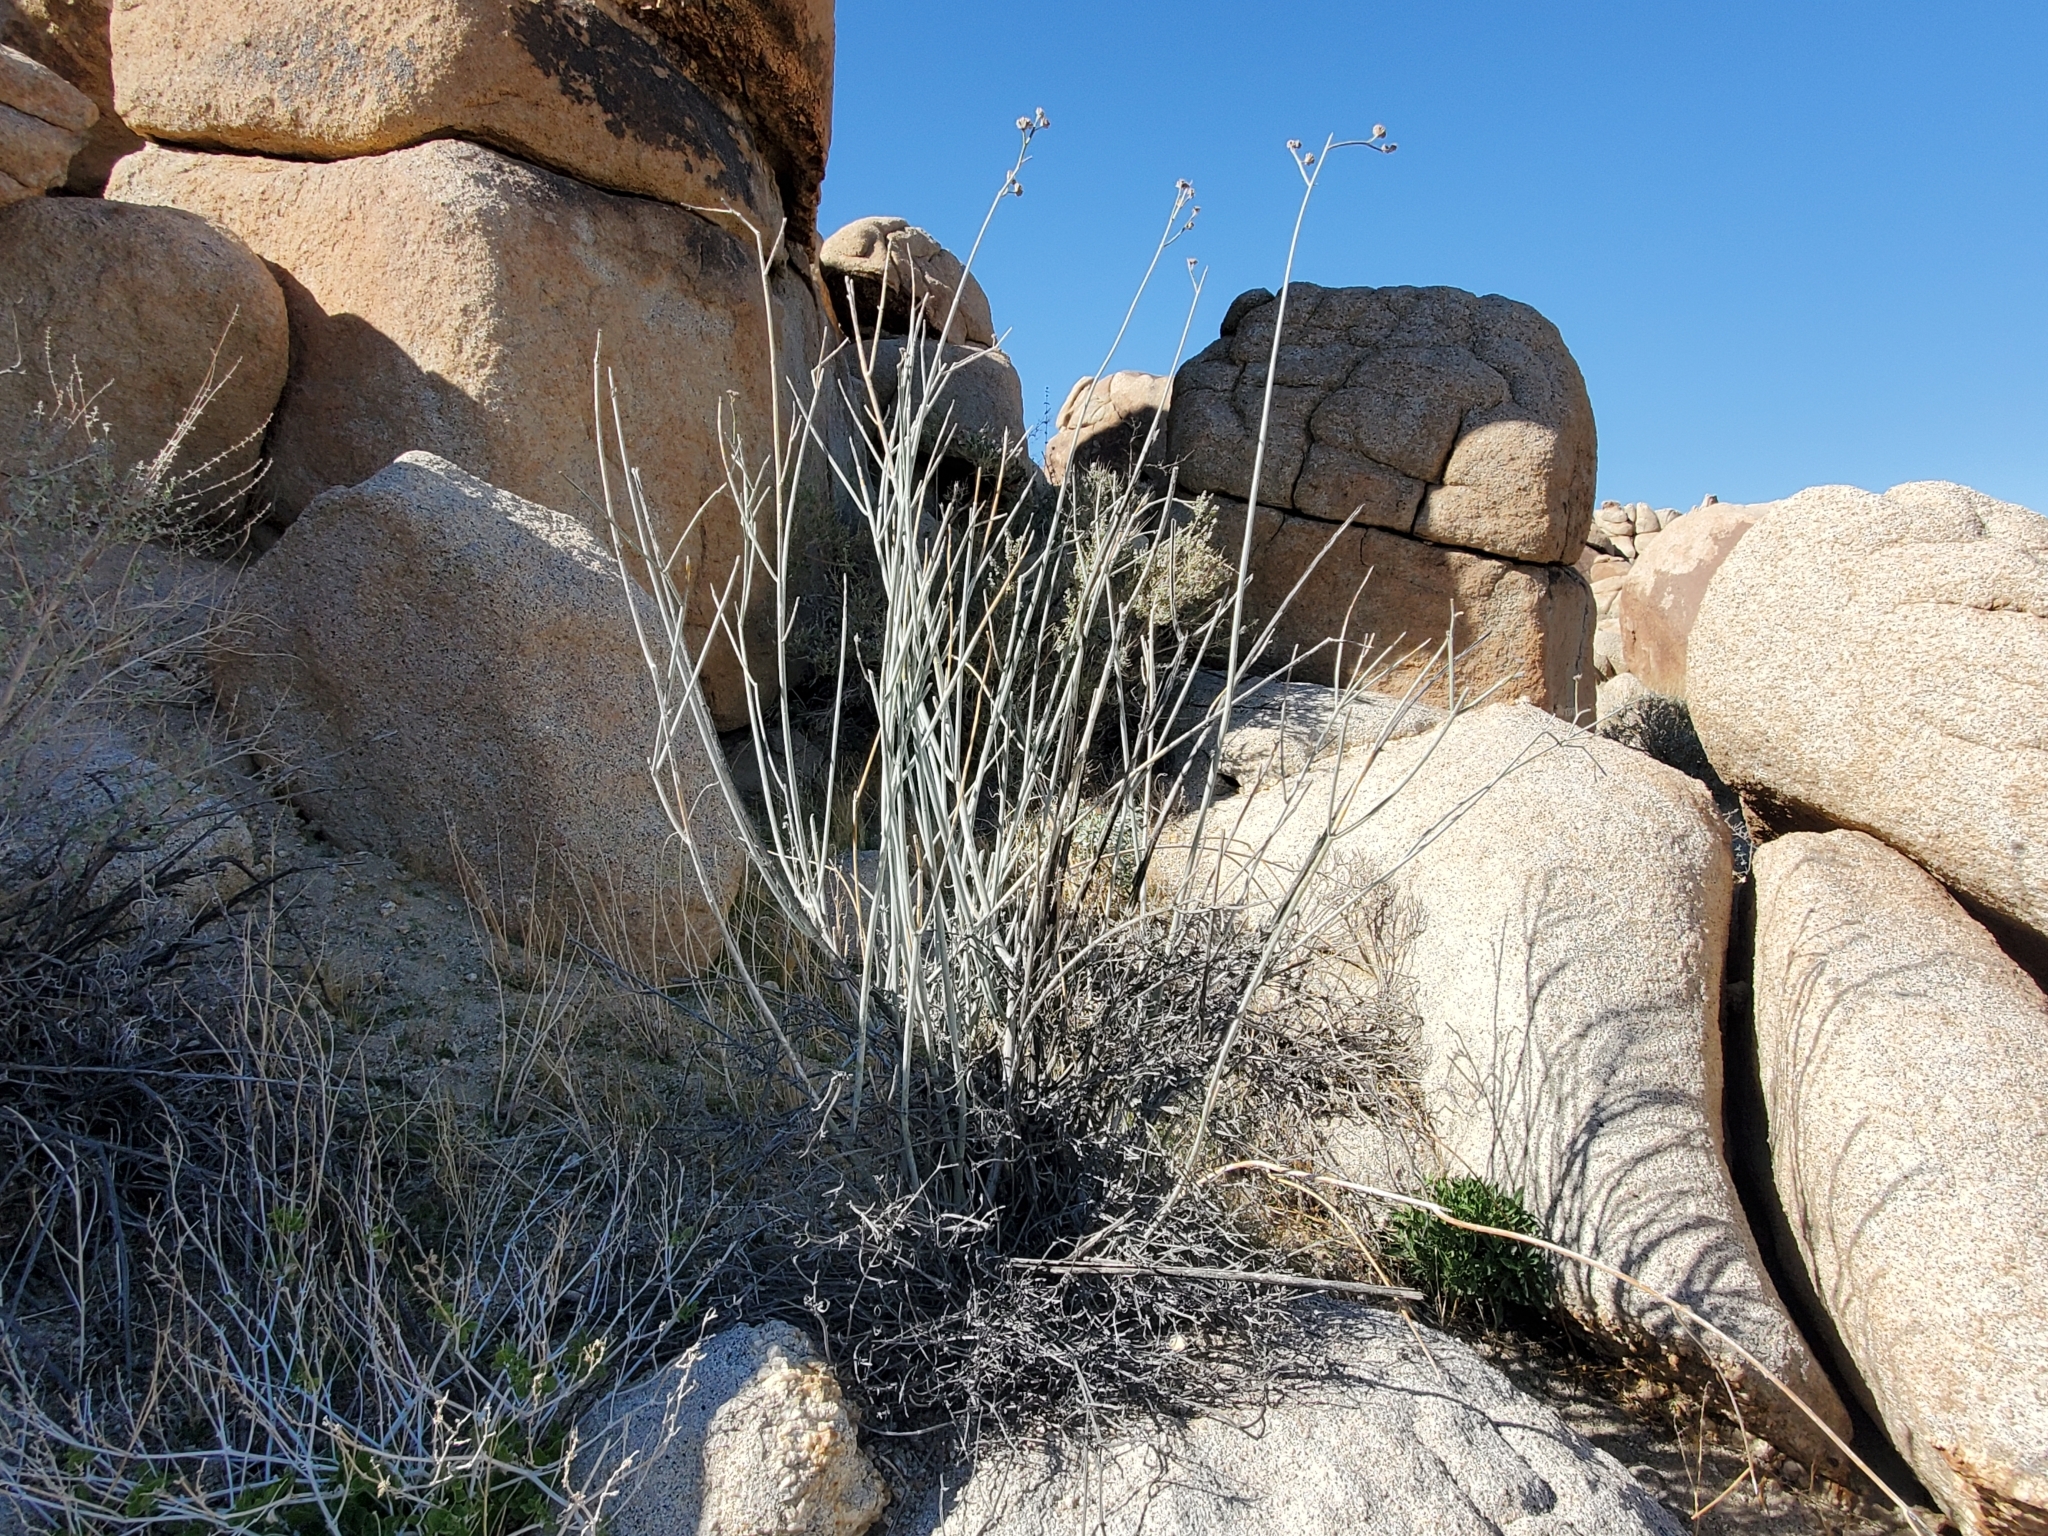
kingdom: Plantae
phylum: Tracheophyta
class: Magnoliopsida
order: Gentianales
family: Apocynaceae
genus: Asclepias
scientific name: Asclepias albicans
